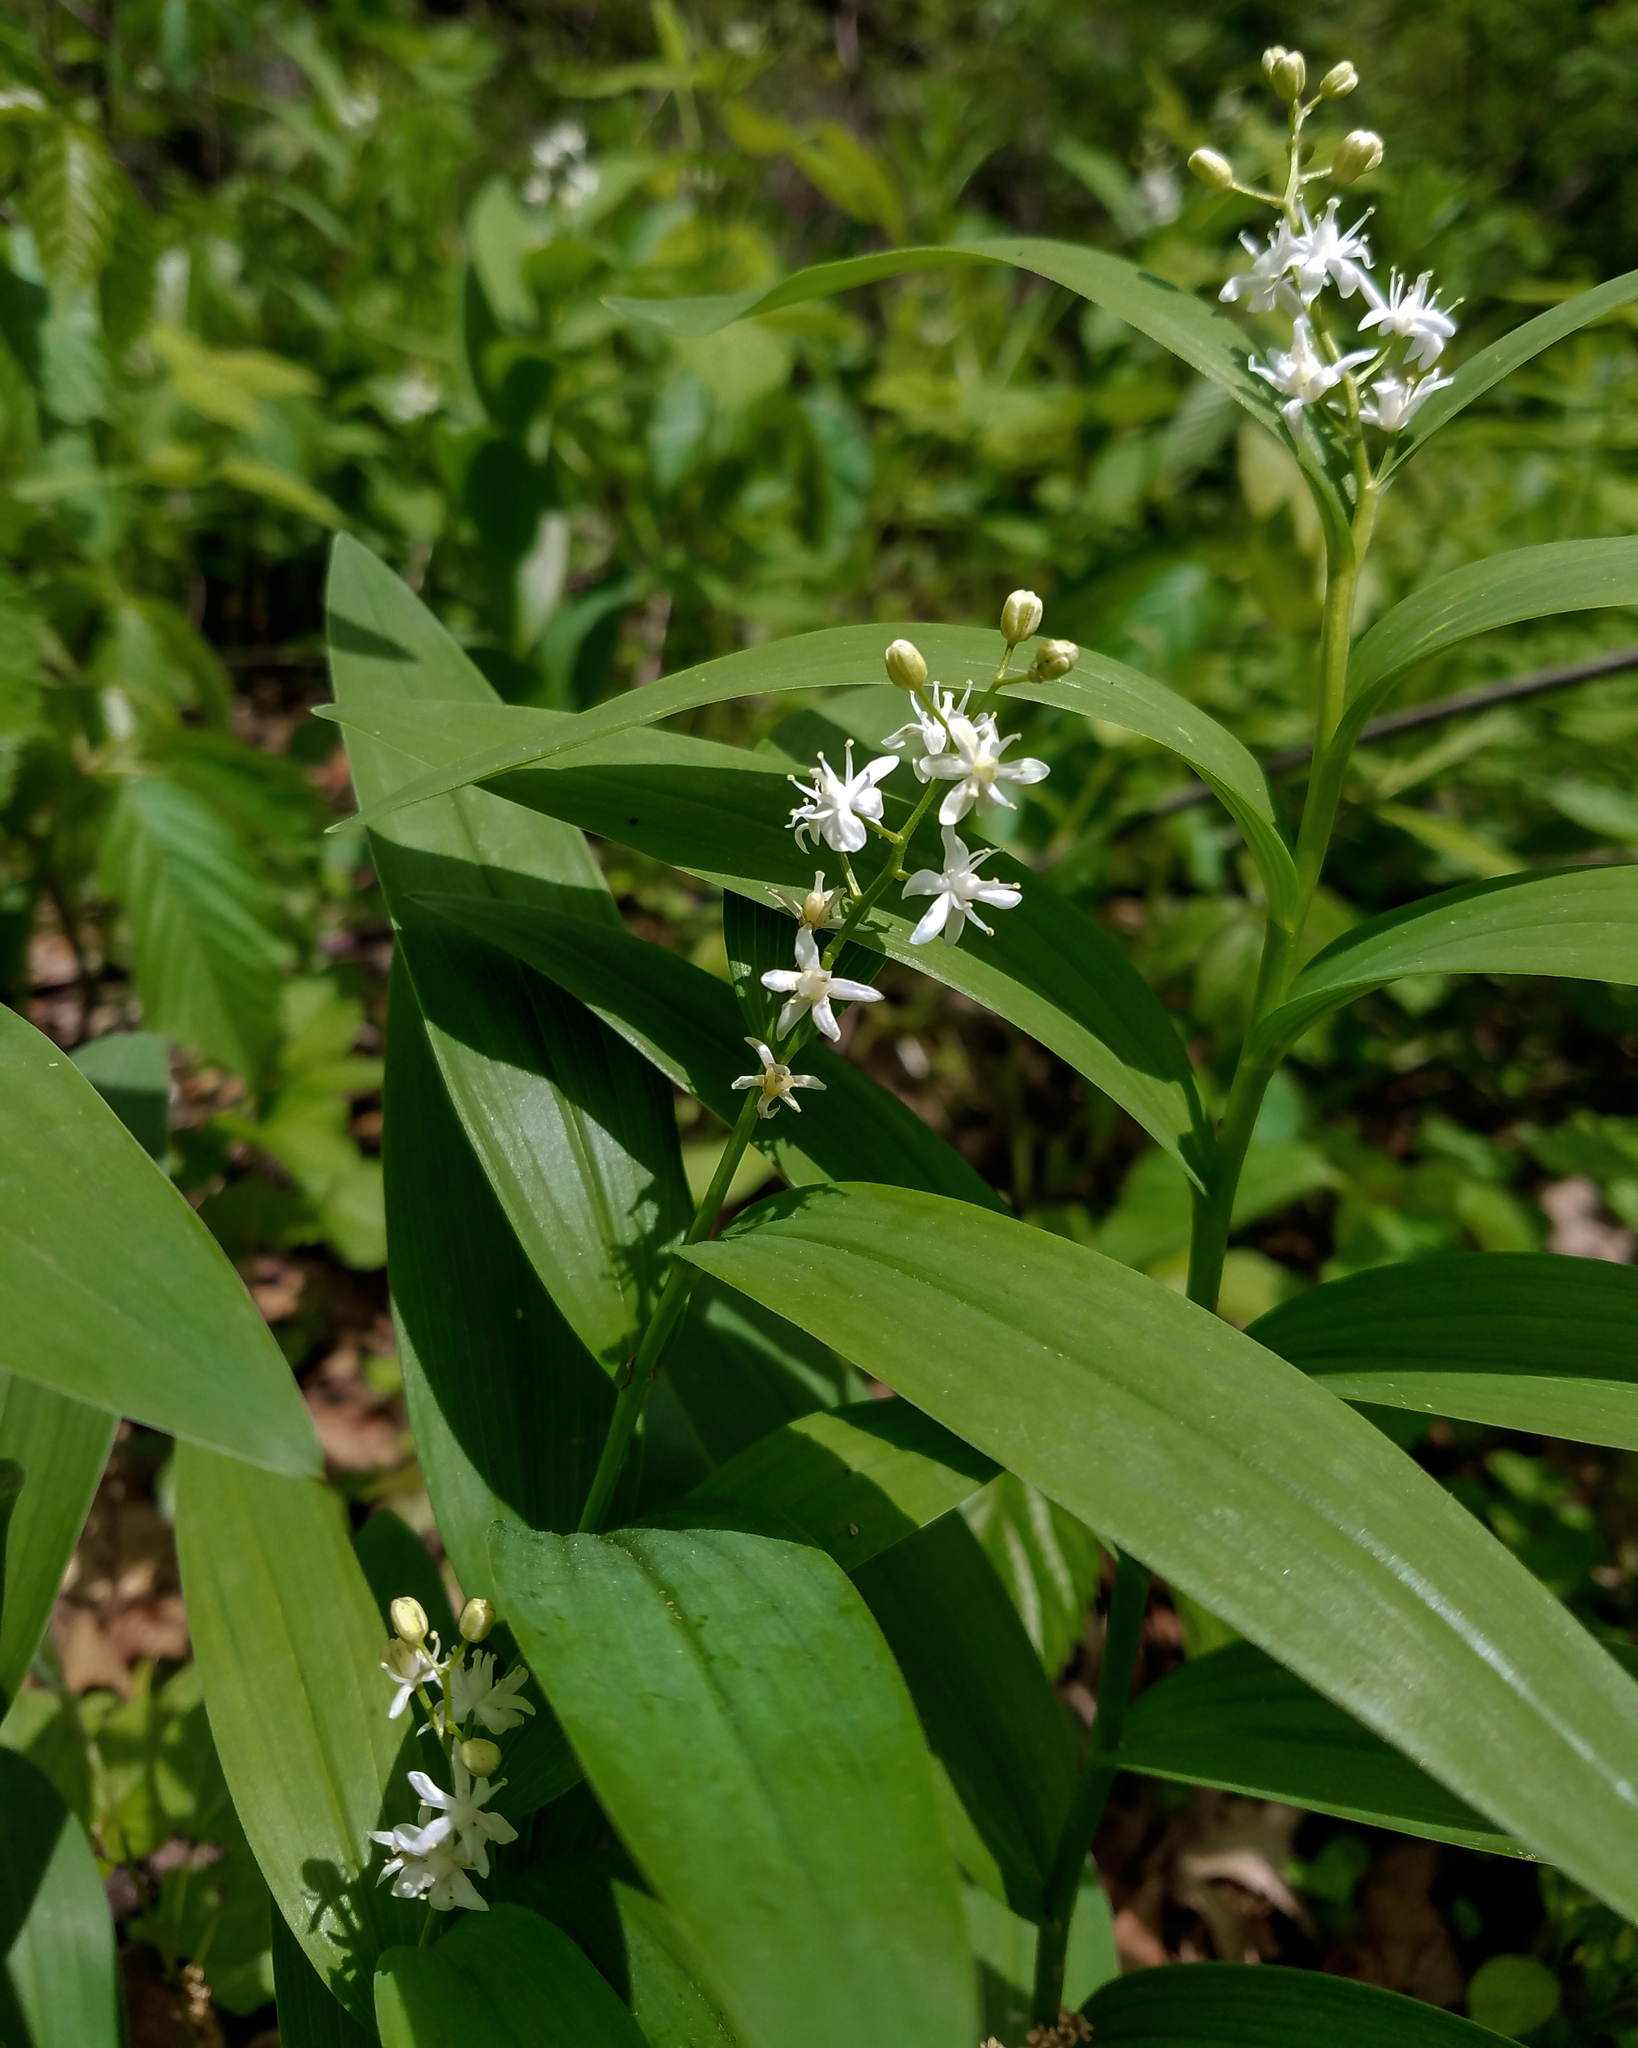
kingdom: Plantae
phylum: Tracheophyta
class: Liliopsida
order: Asparagales
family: Asparagaceae
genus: Maianthemum
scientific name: Maianthemum stellatum
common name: Little false solomon's seal
